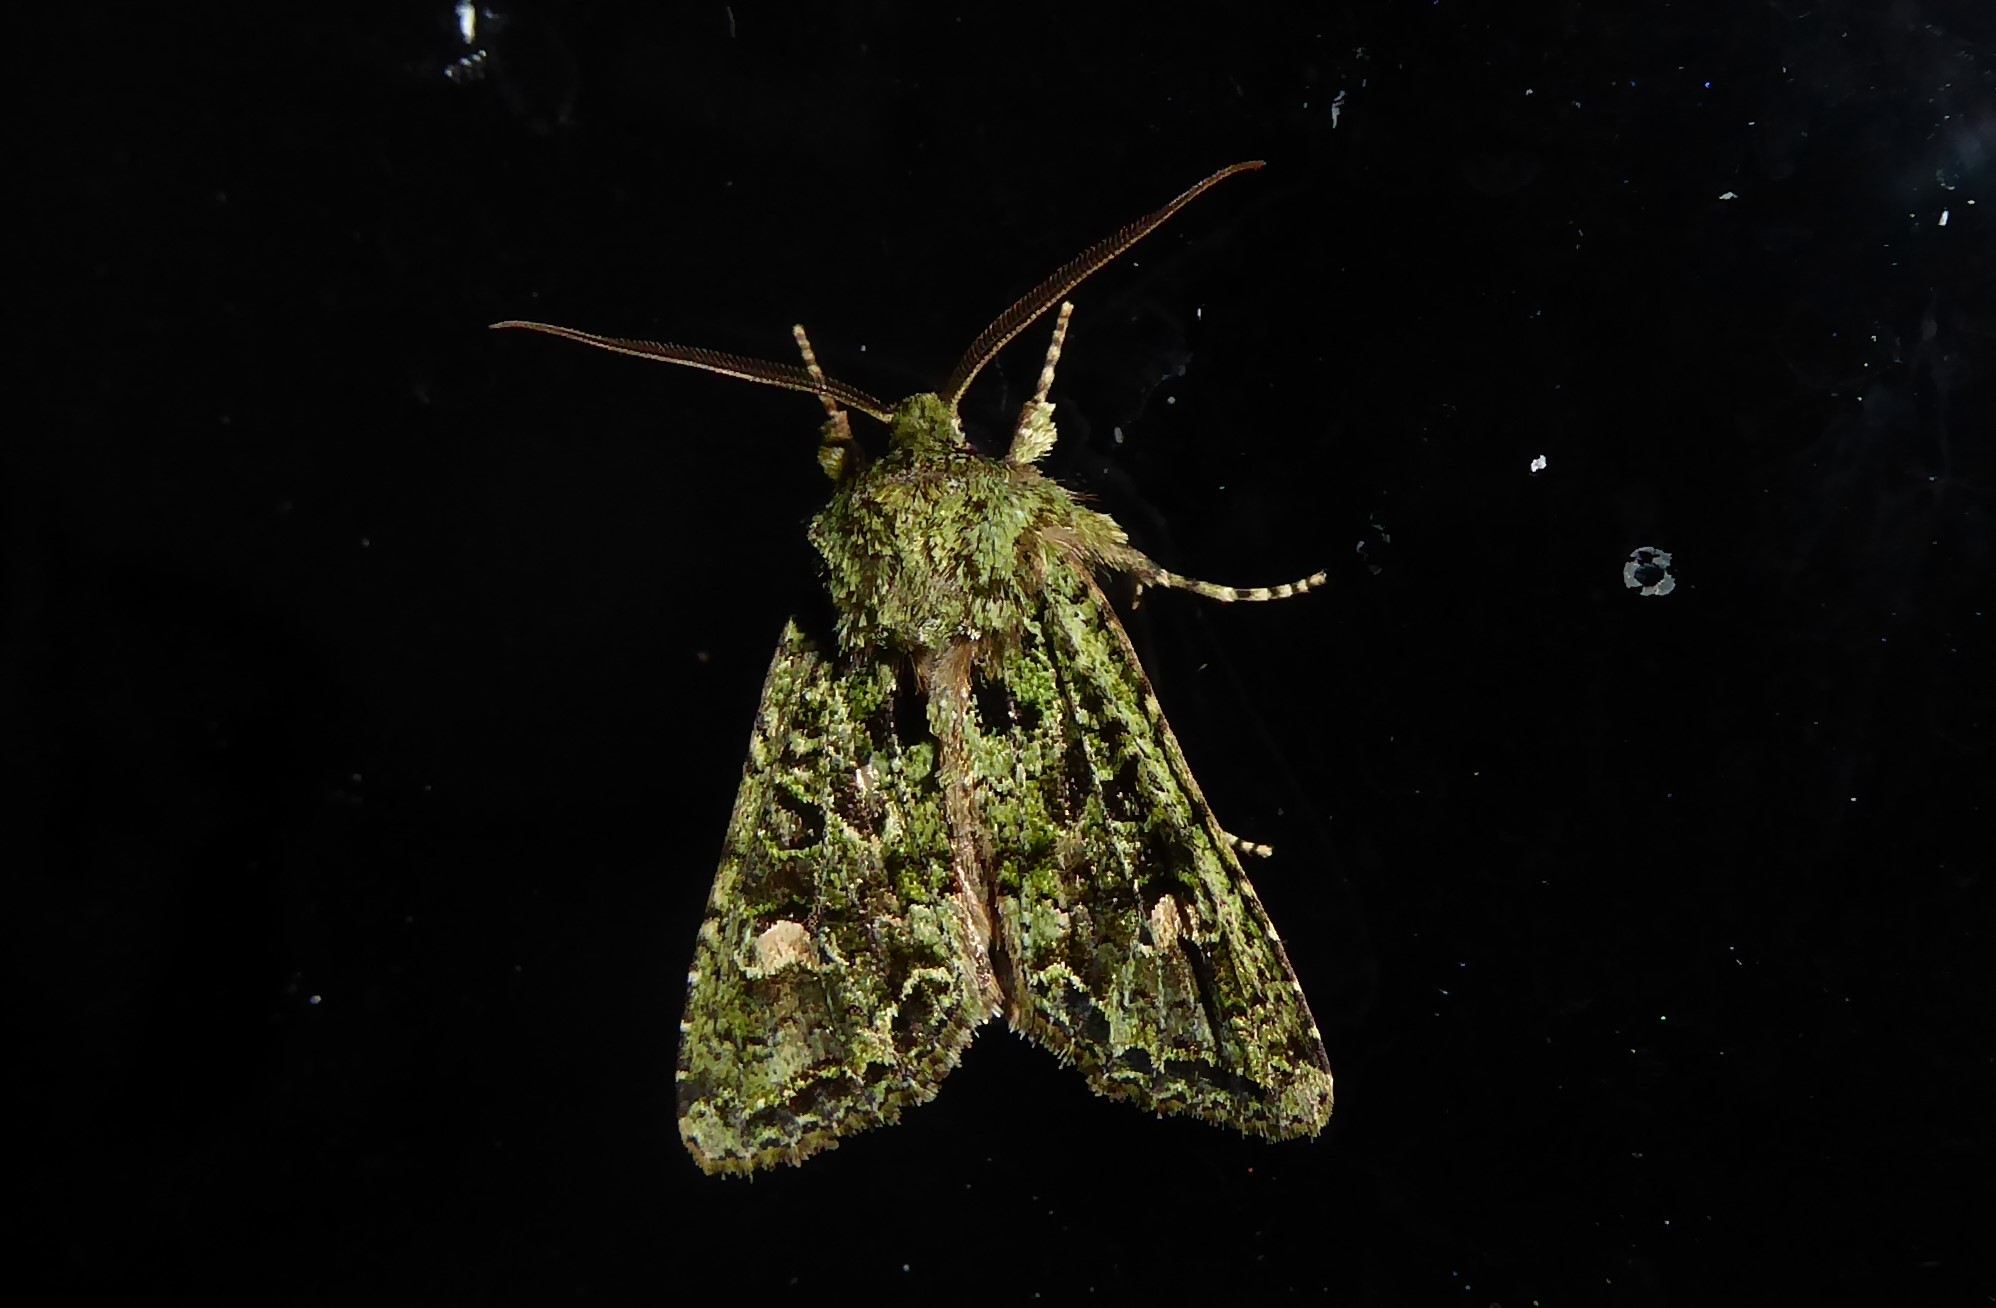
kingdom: Animalia
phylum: Arthropoda
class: Insecta
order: Lepidoptera
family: Noctuidae
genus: Ichneutica
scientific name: Ichneutica
